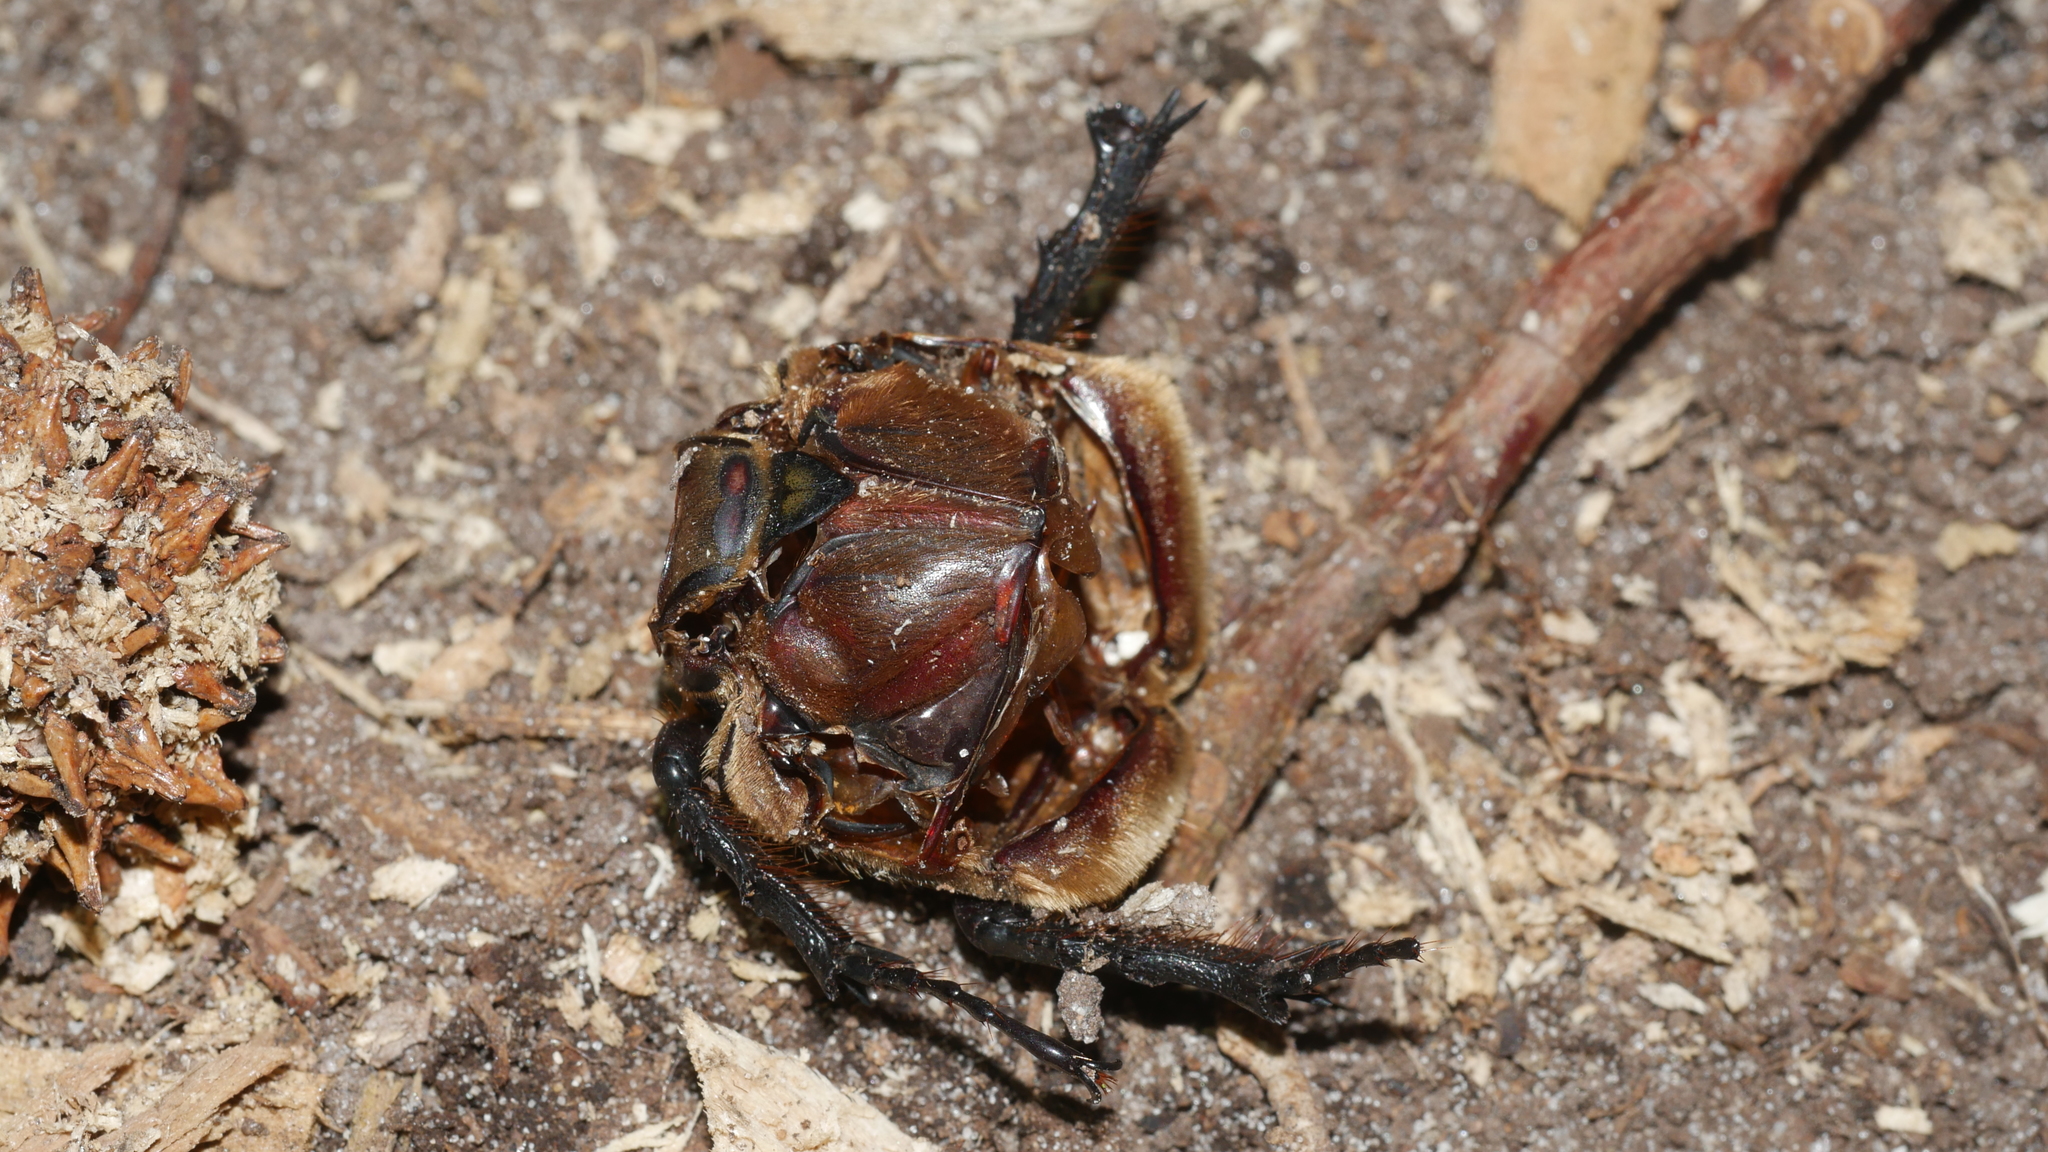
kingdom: Animalia
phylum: Arthropoda
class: Insecta
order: Coleoptera
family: Scarabaeidae
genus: Dynastes
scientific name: Dynastes tityus
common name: Eastern hercules beetle
